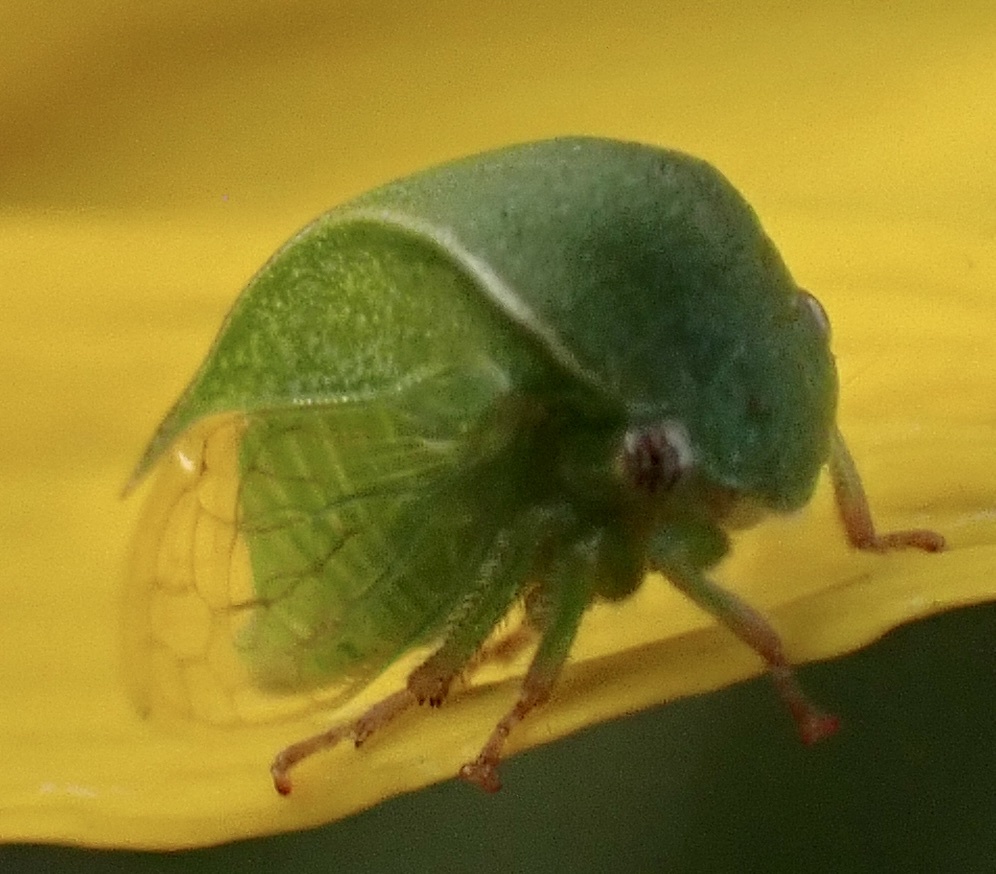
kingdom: Animalia
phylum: Arthropoda
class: Insecta
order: Hemiptera
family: Membracidae
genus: Spissistilus
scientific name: Spissistilus festina
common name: Membracid bug
